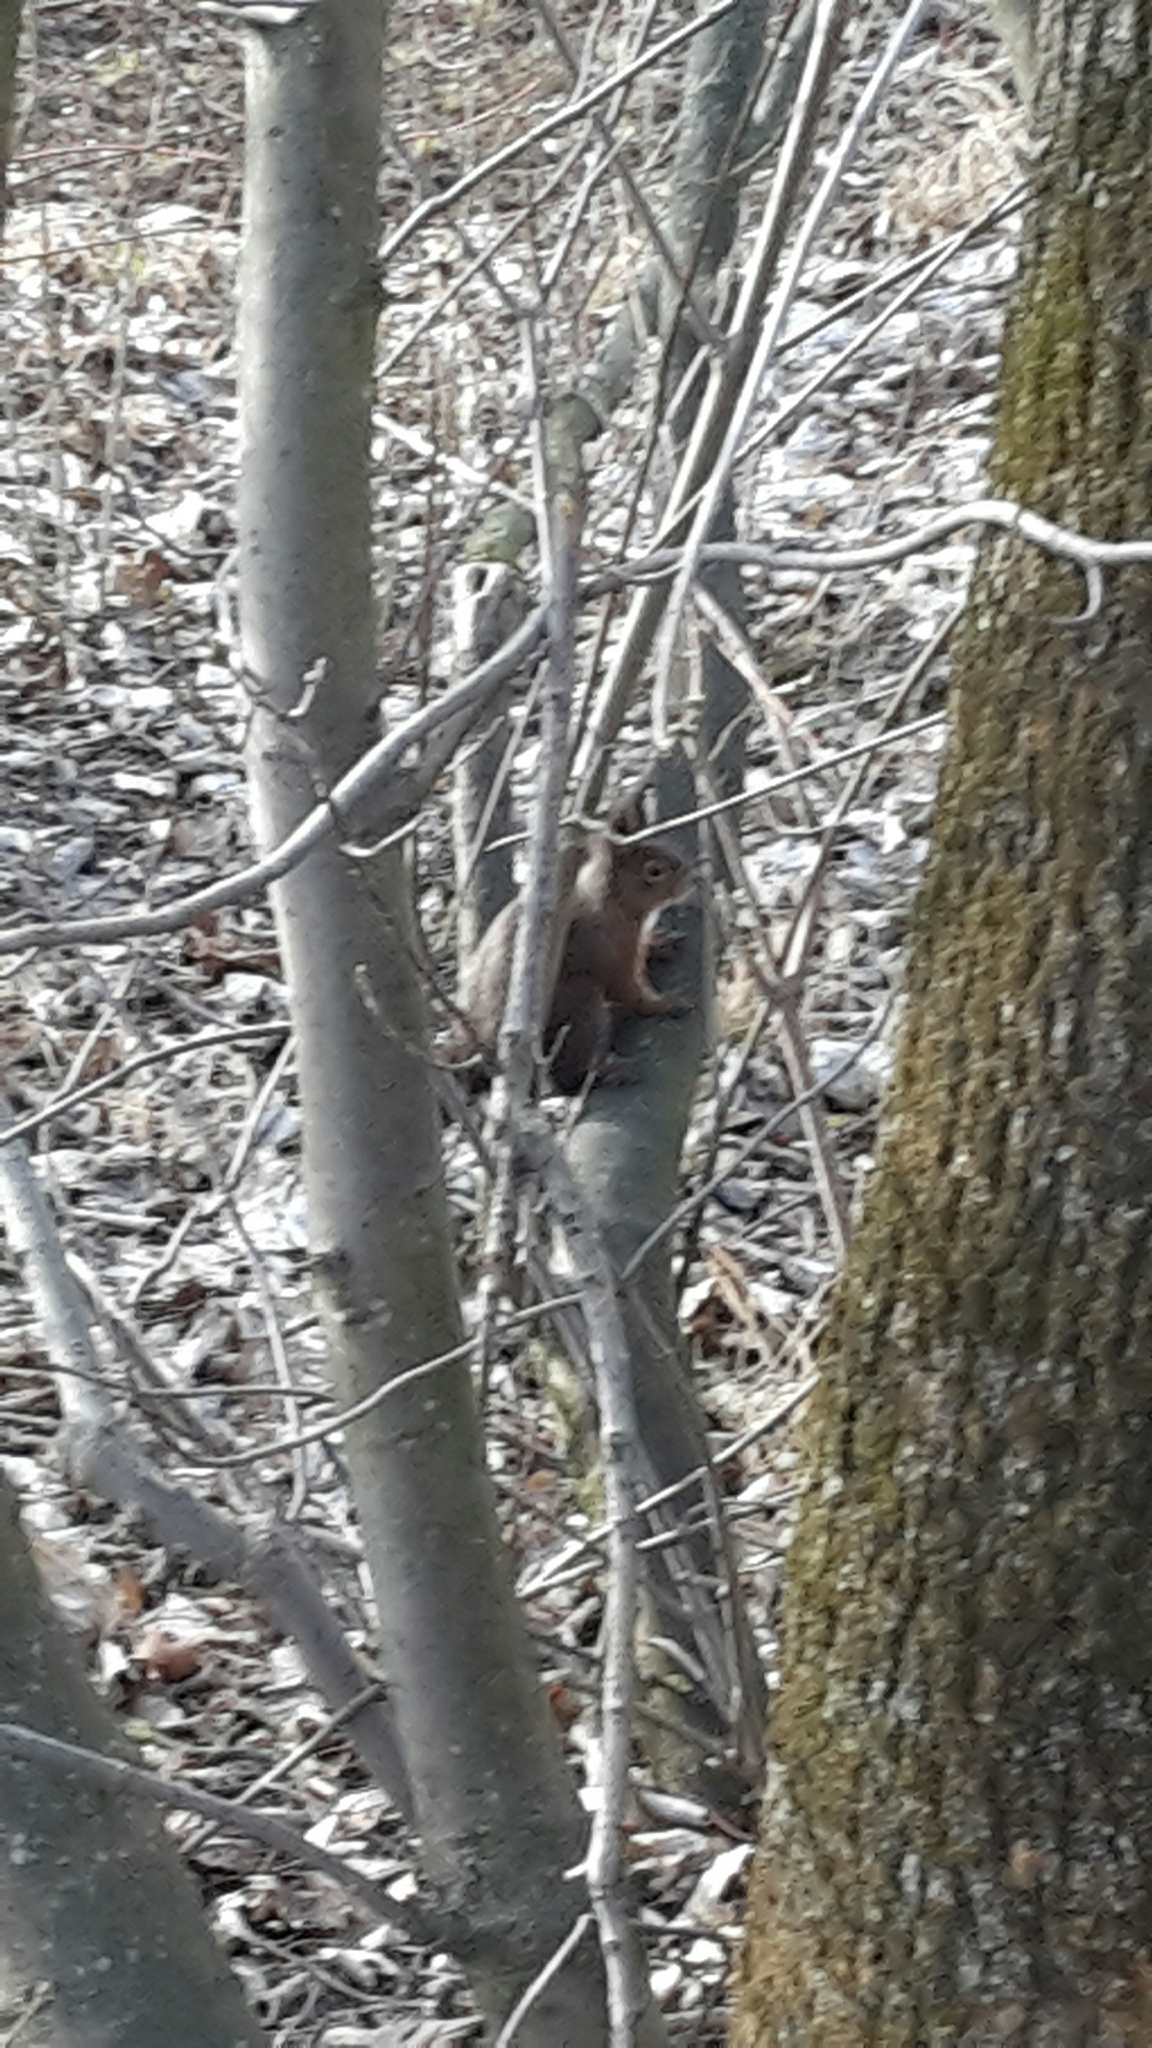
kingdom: Animalia
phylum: Chordata
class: Mammalia
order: Rodentia
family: Sciuridae
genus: Sciurus
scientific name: Sciurus vulgaris
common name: Eurasian red squirrel
